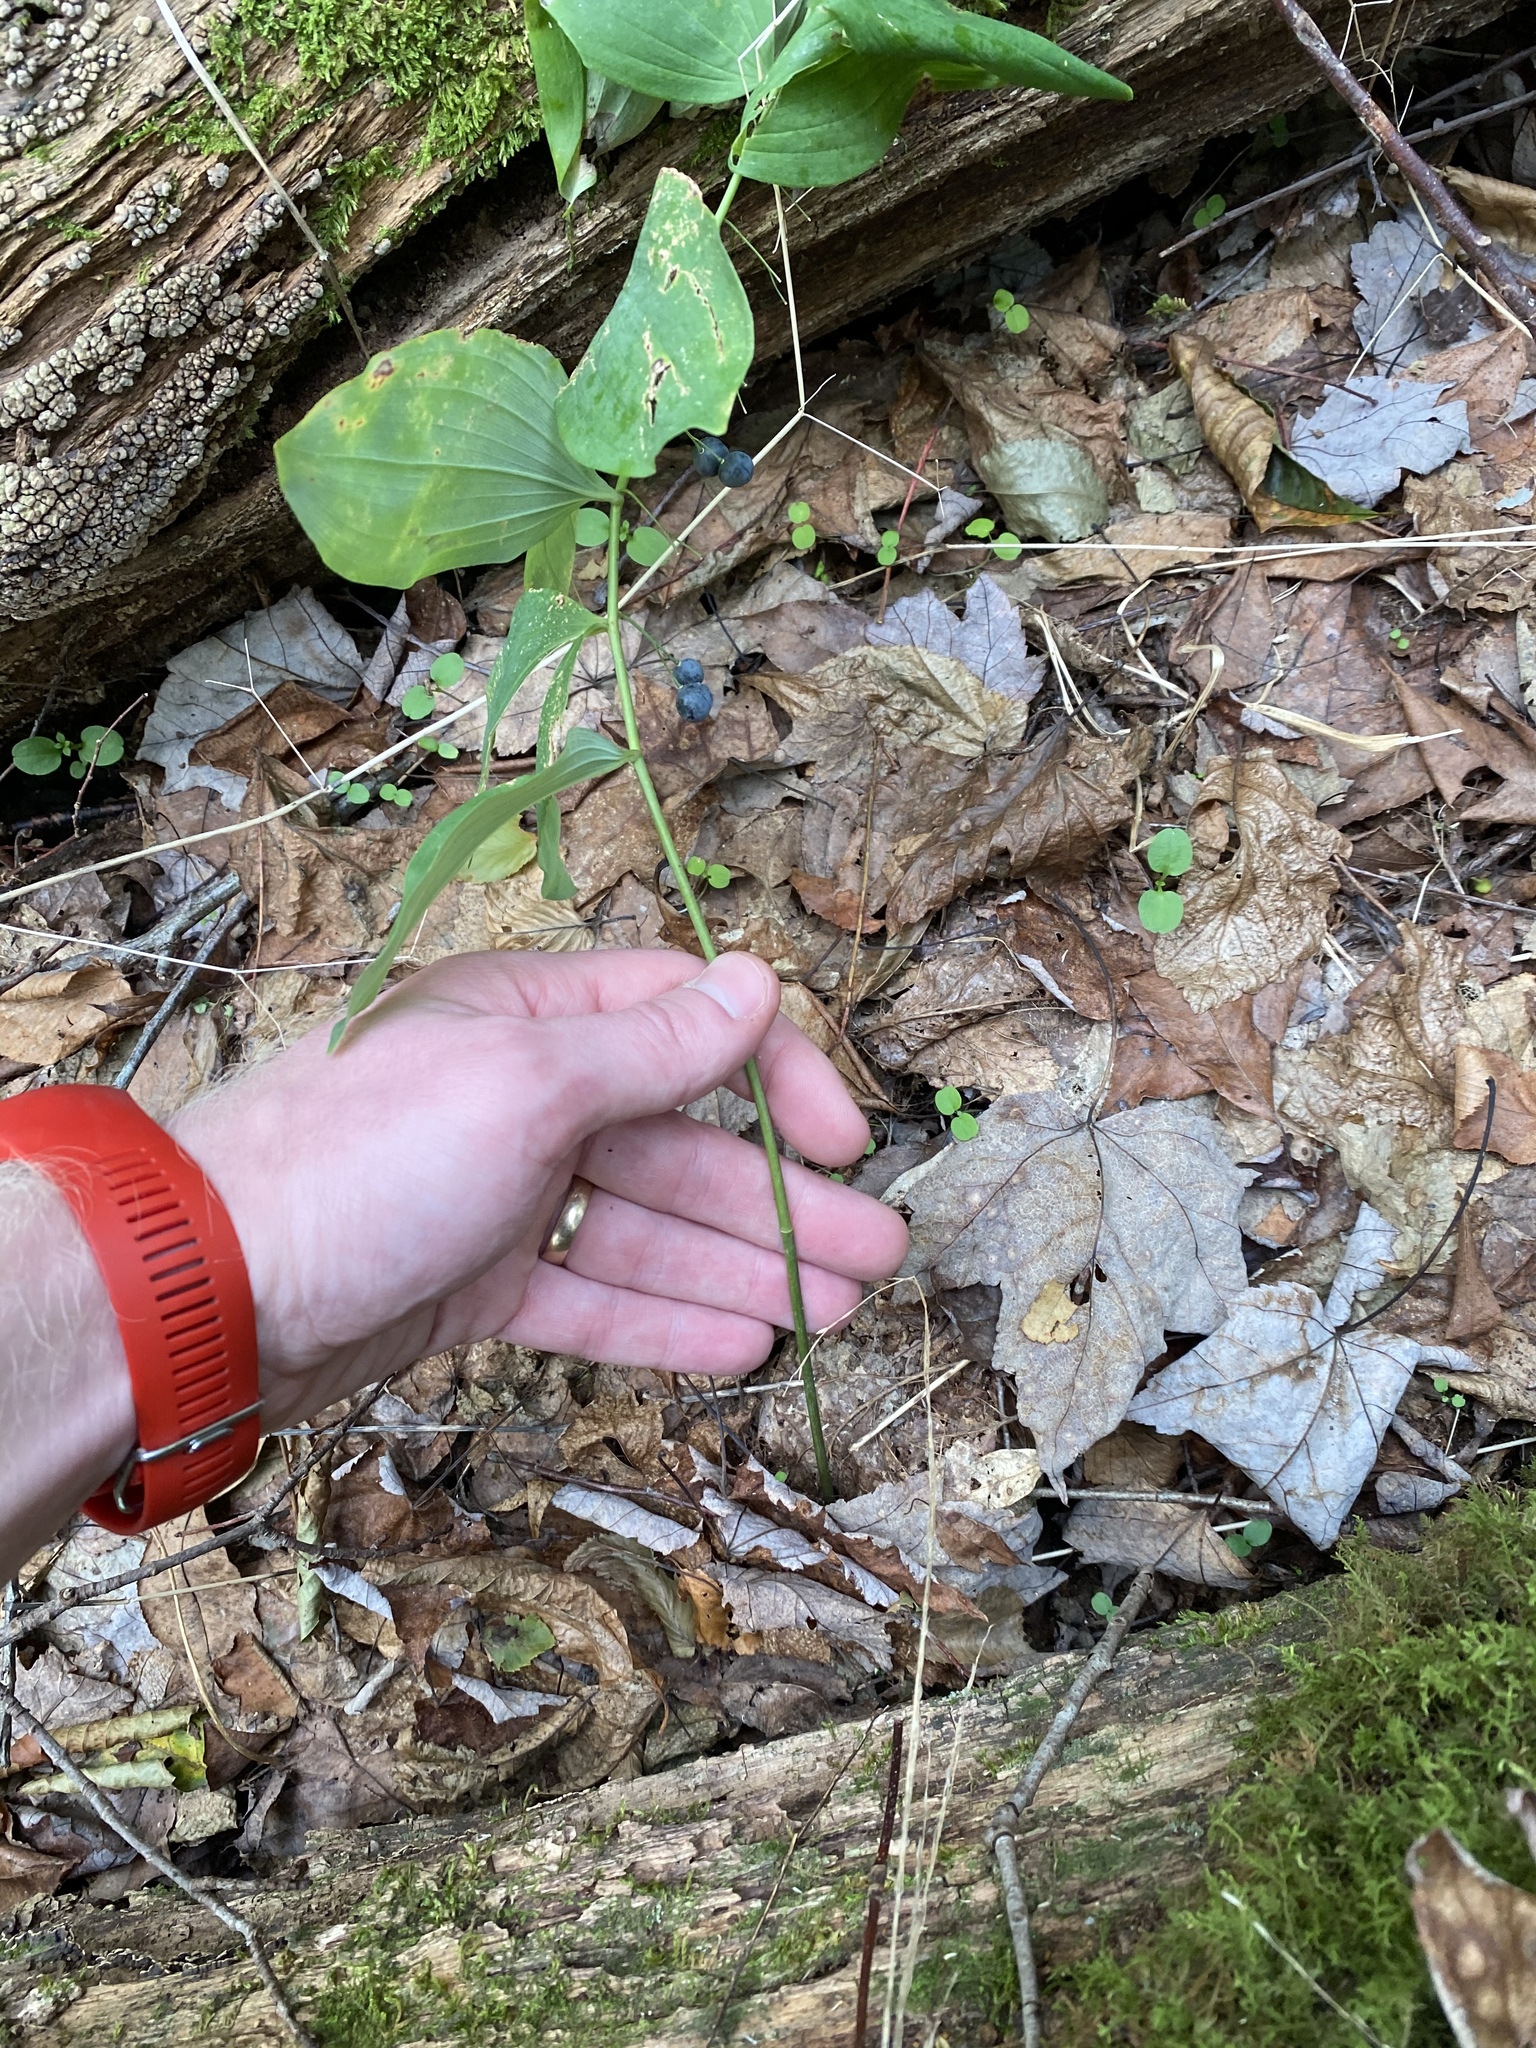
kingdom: Plantae
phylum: Tracheophyta
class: Liliopsida
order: Asparagales
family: Asparagaceae
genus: Polygonatum
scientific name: Polygonatum pubescens
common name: Downy solomon's seal
